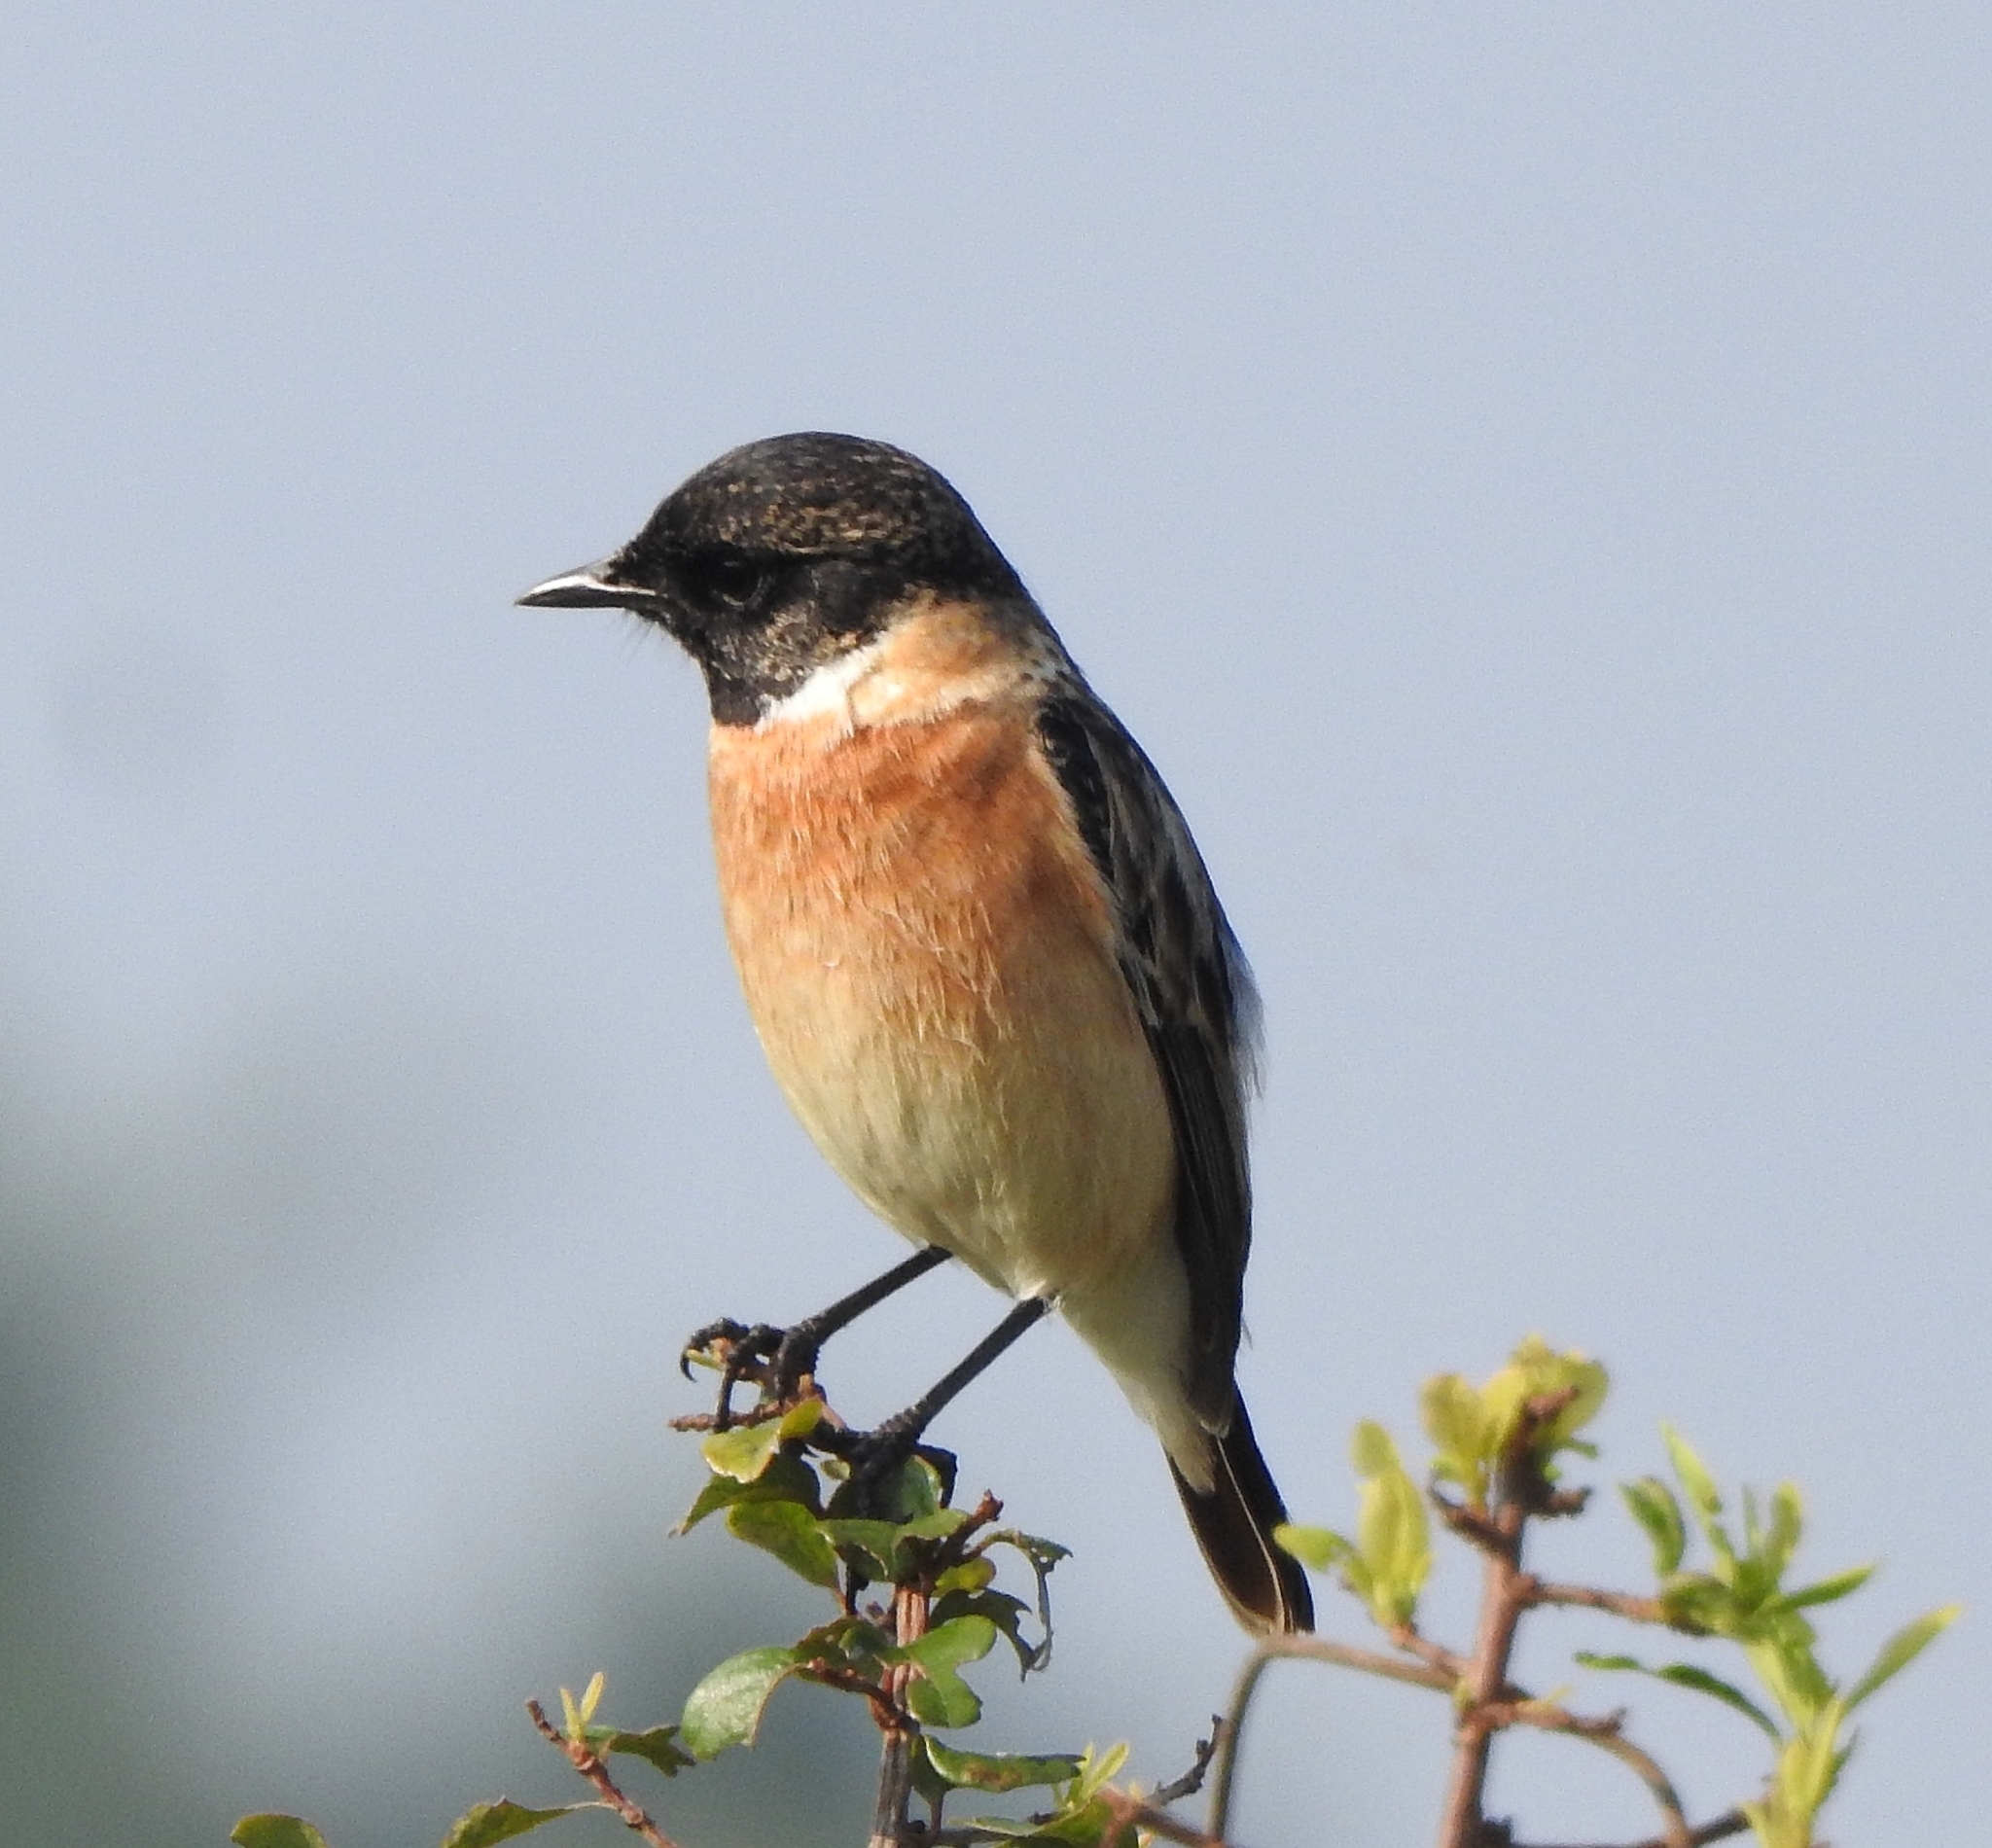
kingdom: Animalia
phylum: Chordata
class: Aves
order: Passeriformes
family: Muscicapidae
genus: Saxicola
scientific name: Saxicola maurus
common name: Siberian stonechat
